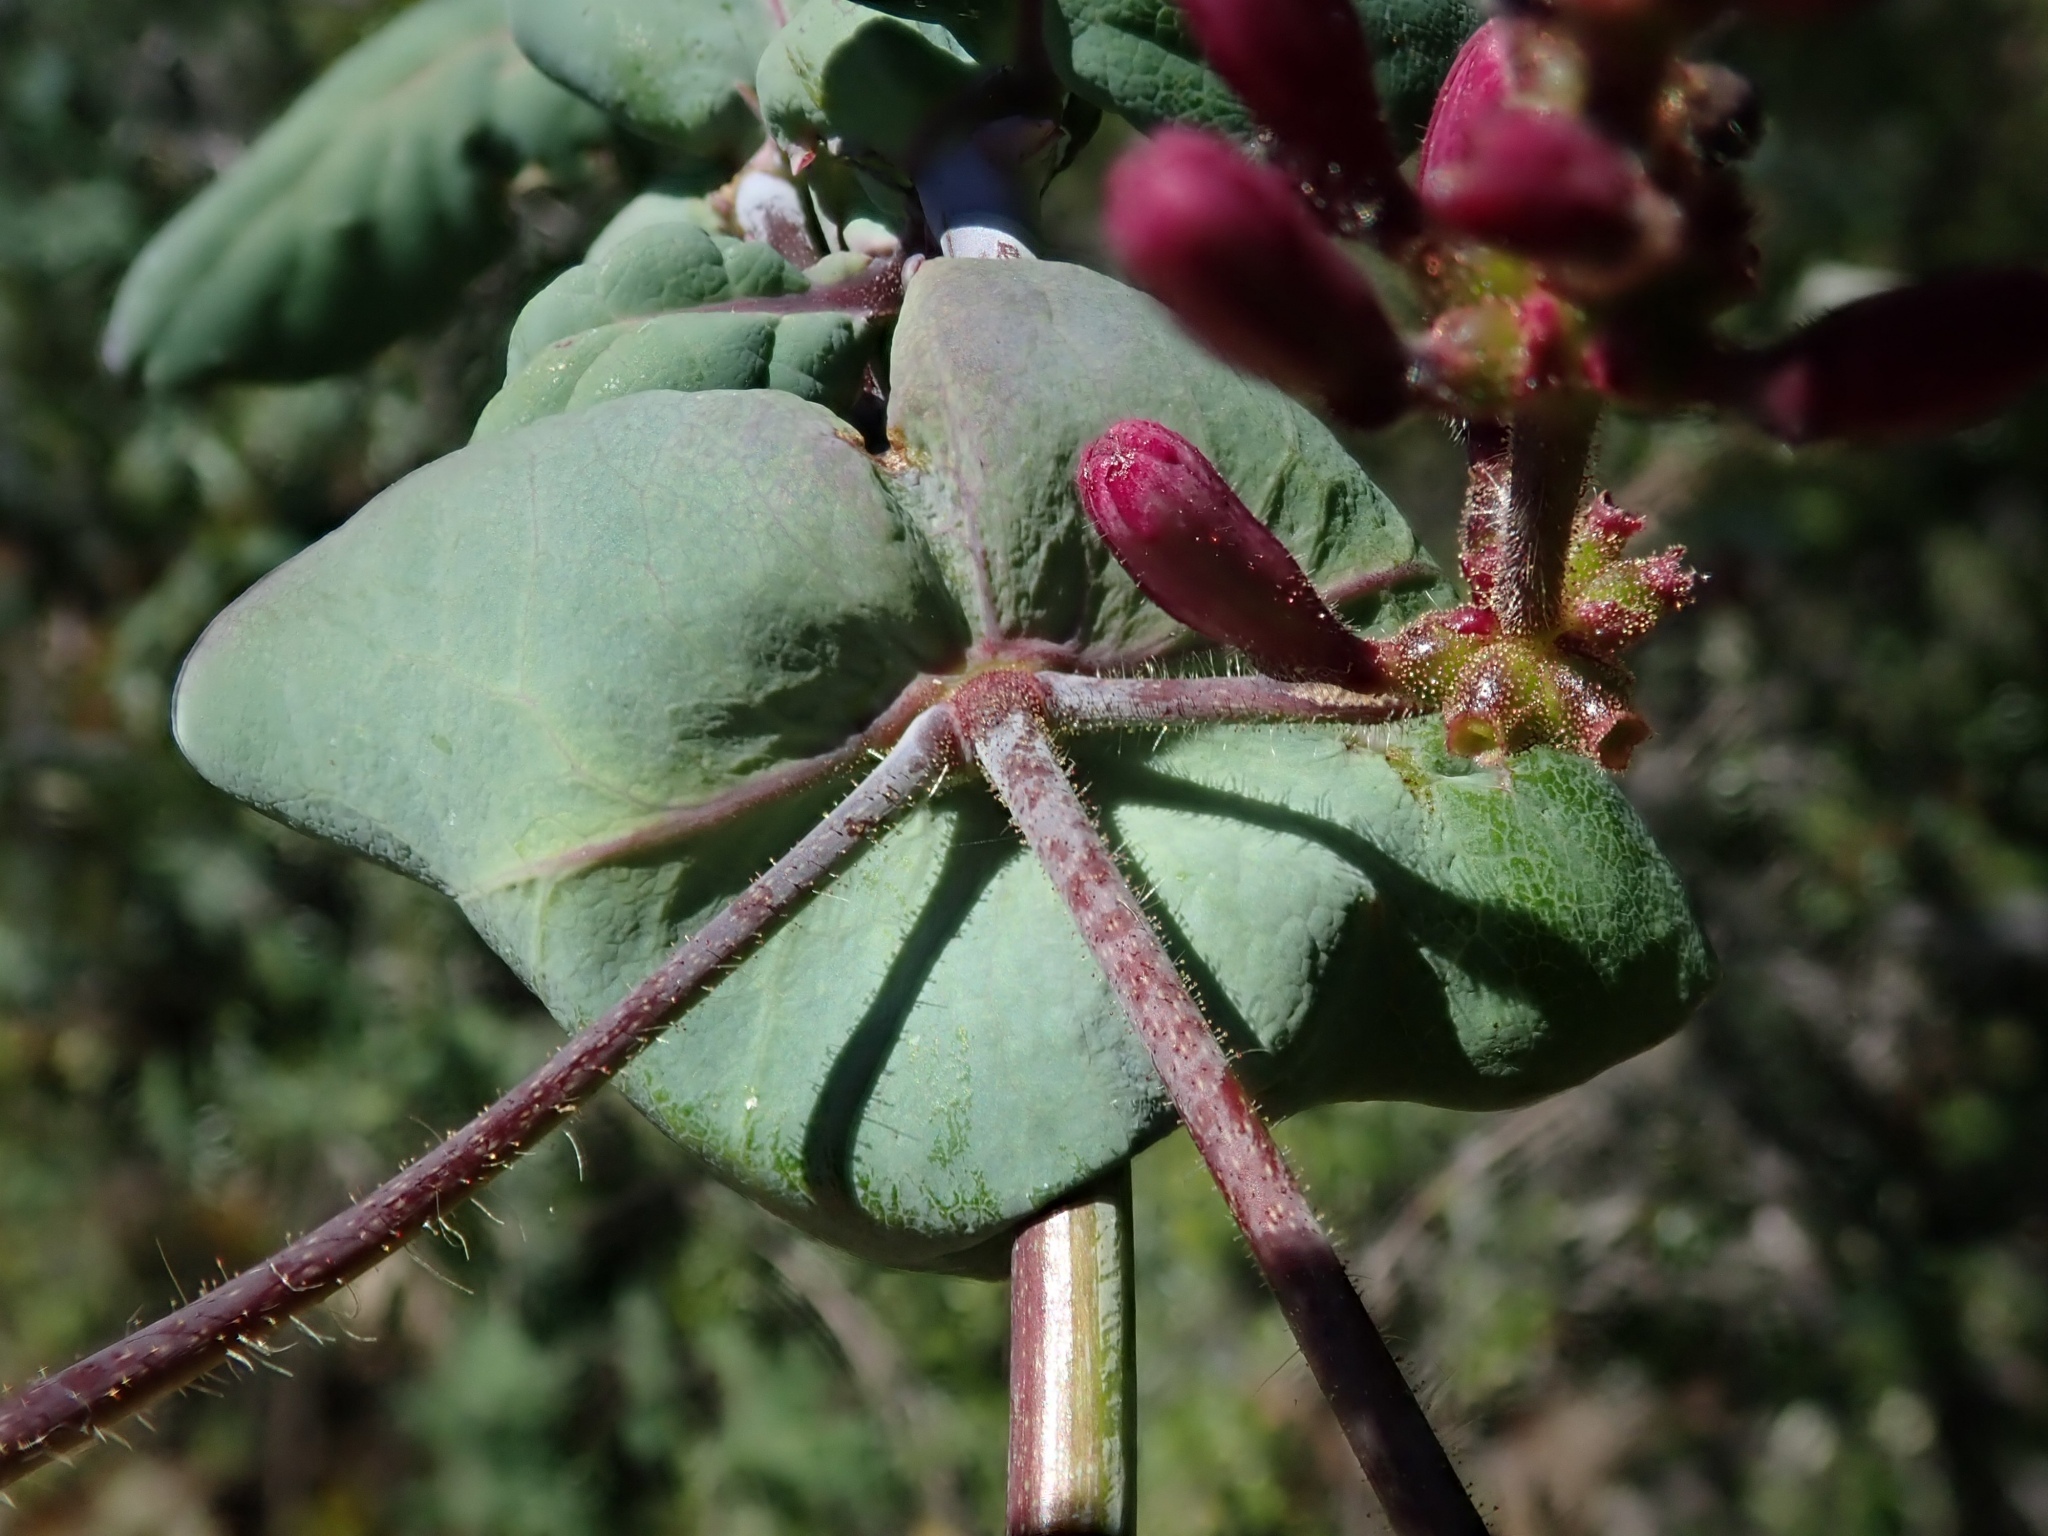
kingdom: Plantae
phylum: Tracheophyta
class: Magnoliopsida
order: Dipsacales
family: Caprifoliaceae
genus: Lonicera
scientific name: Lonicera hispidula
